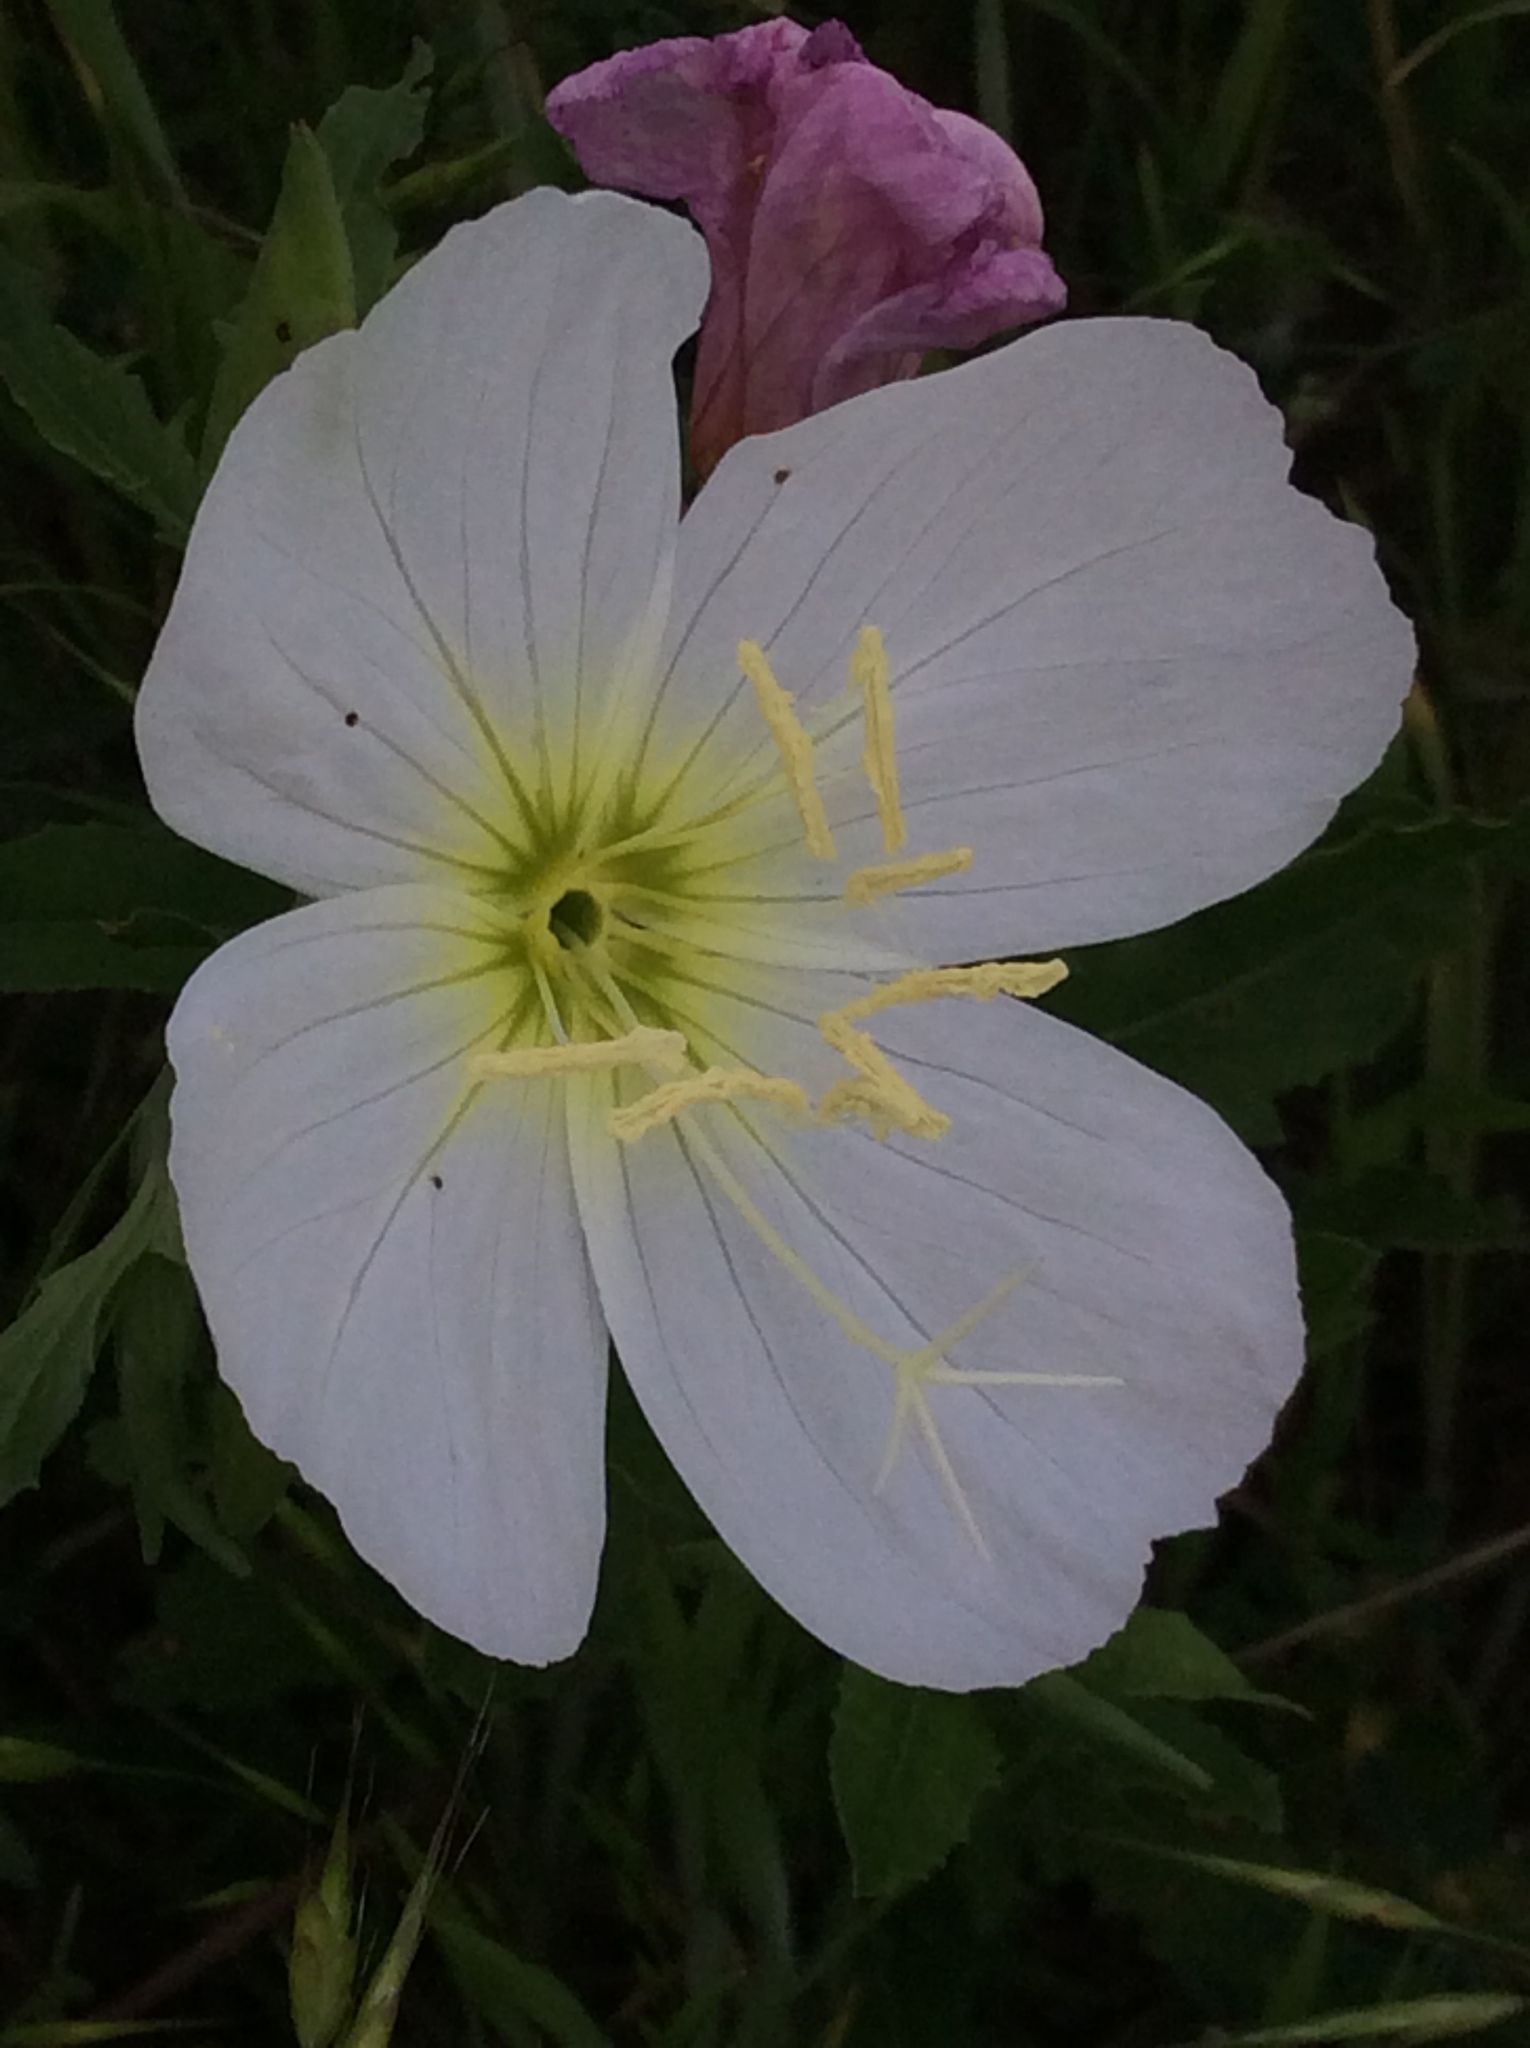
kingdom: Plantae
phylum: Tracheophyta
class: Magnoliopsida
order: Myrtales
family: Onagraceae
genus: Oenothera
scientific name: Oenothera speciosa
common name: White evening-primrose
